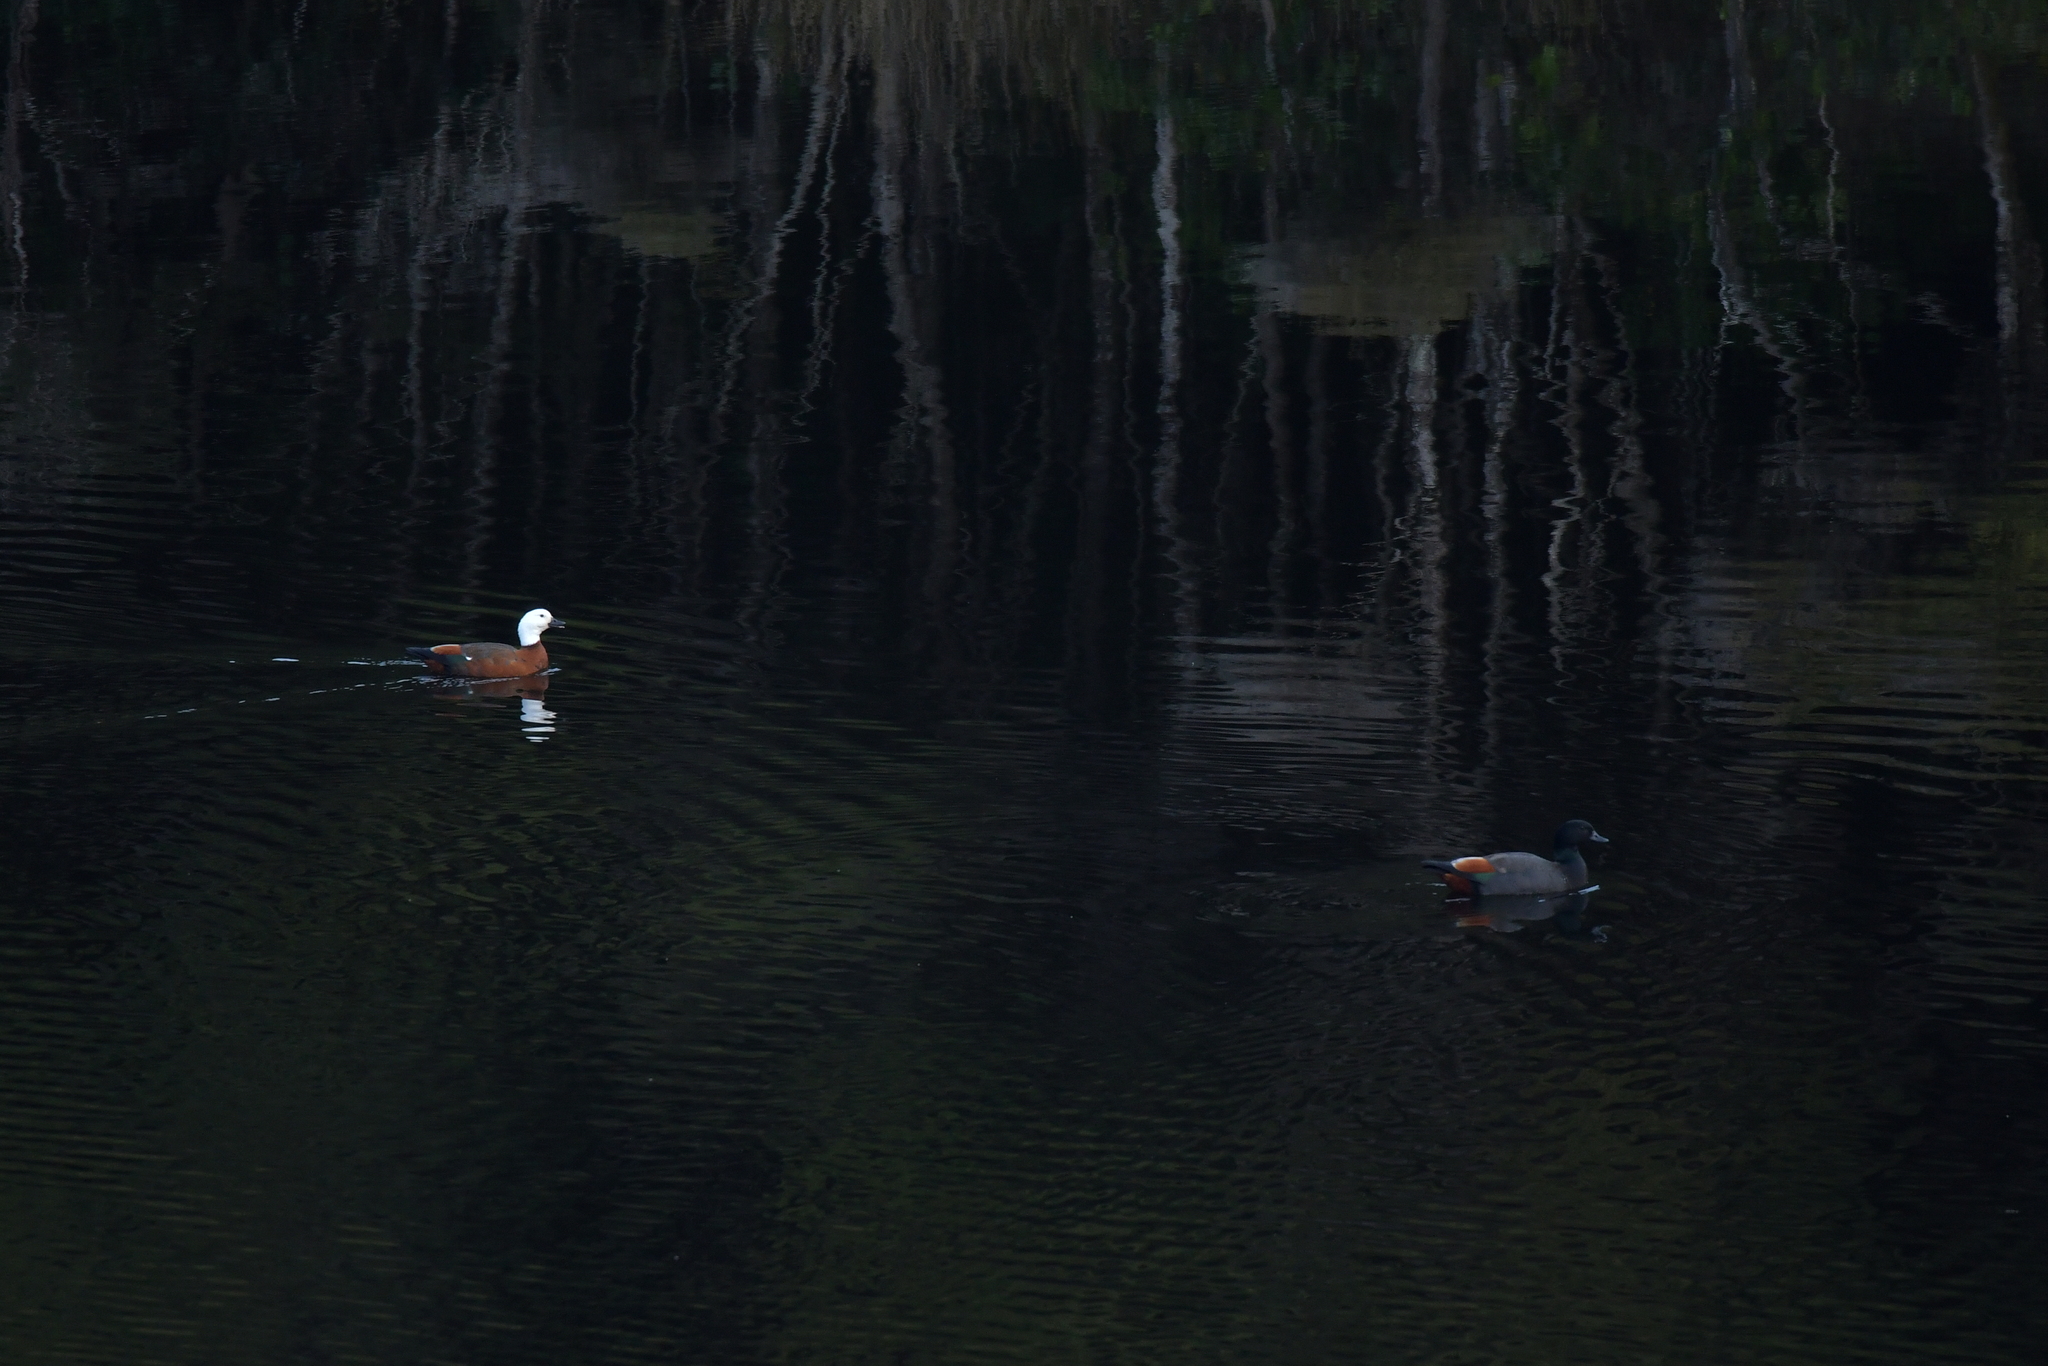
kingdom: Animalia
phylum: Chordata
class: Aves
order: Anseriformes
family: Anatidae
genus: Tadorna
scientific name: Tadorna variegata
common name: Paradise shelduck
